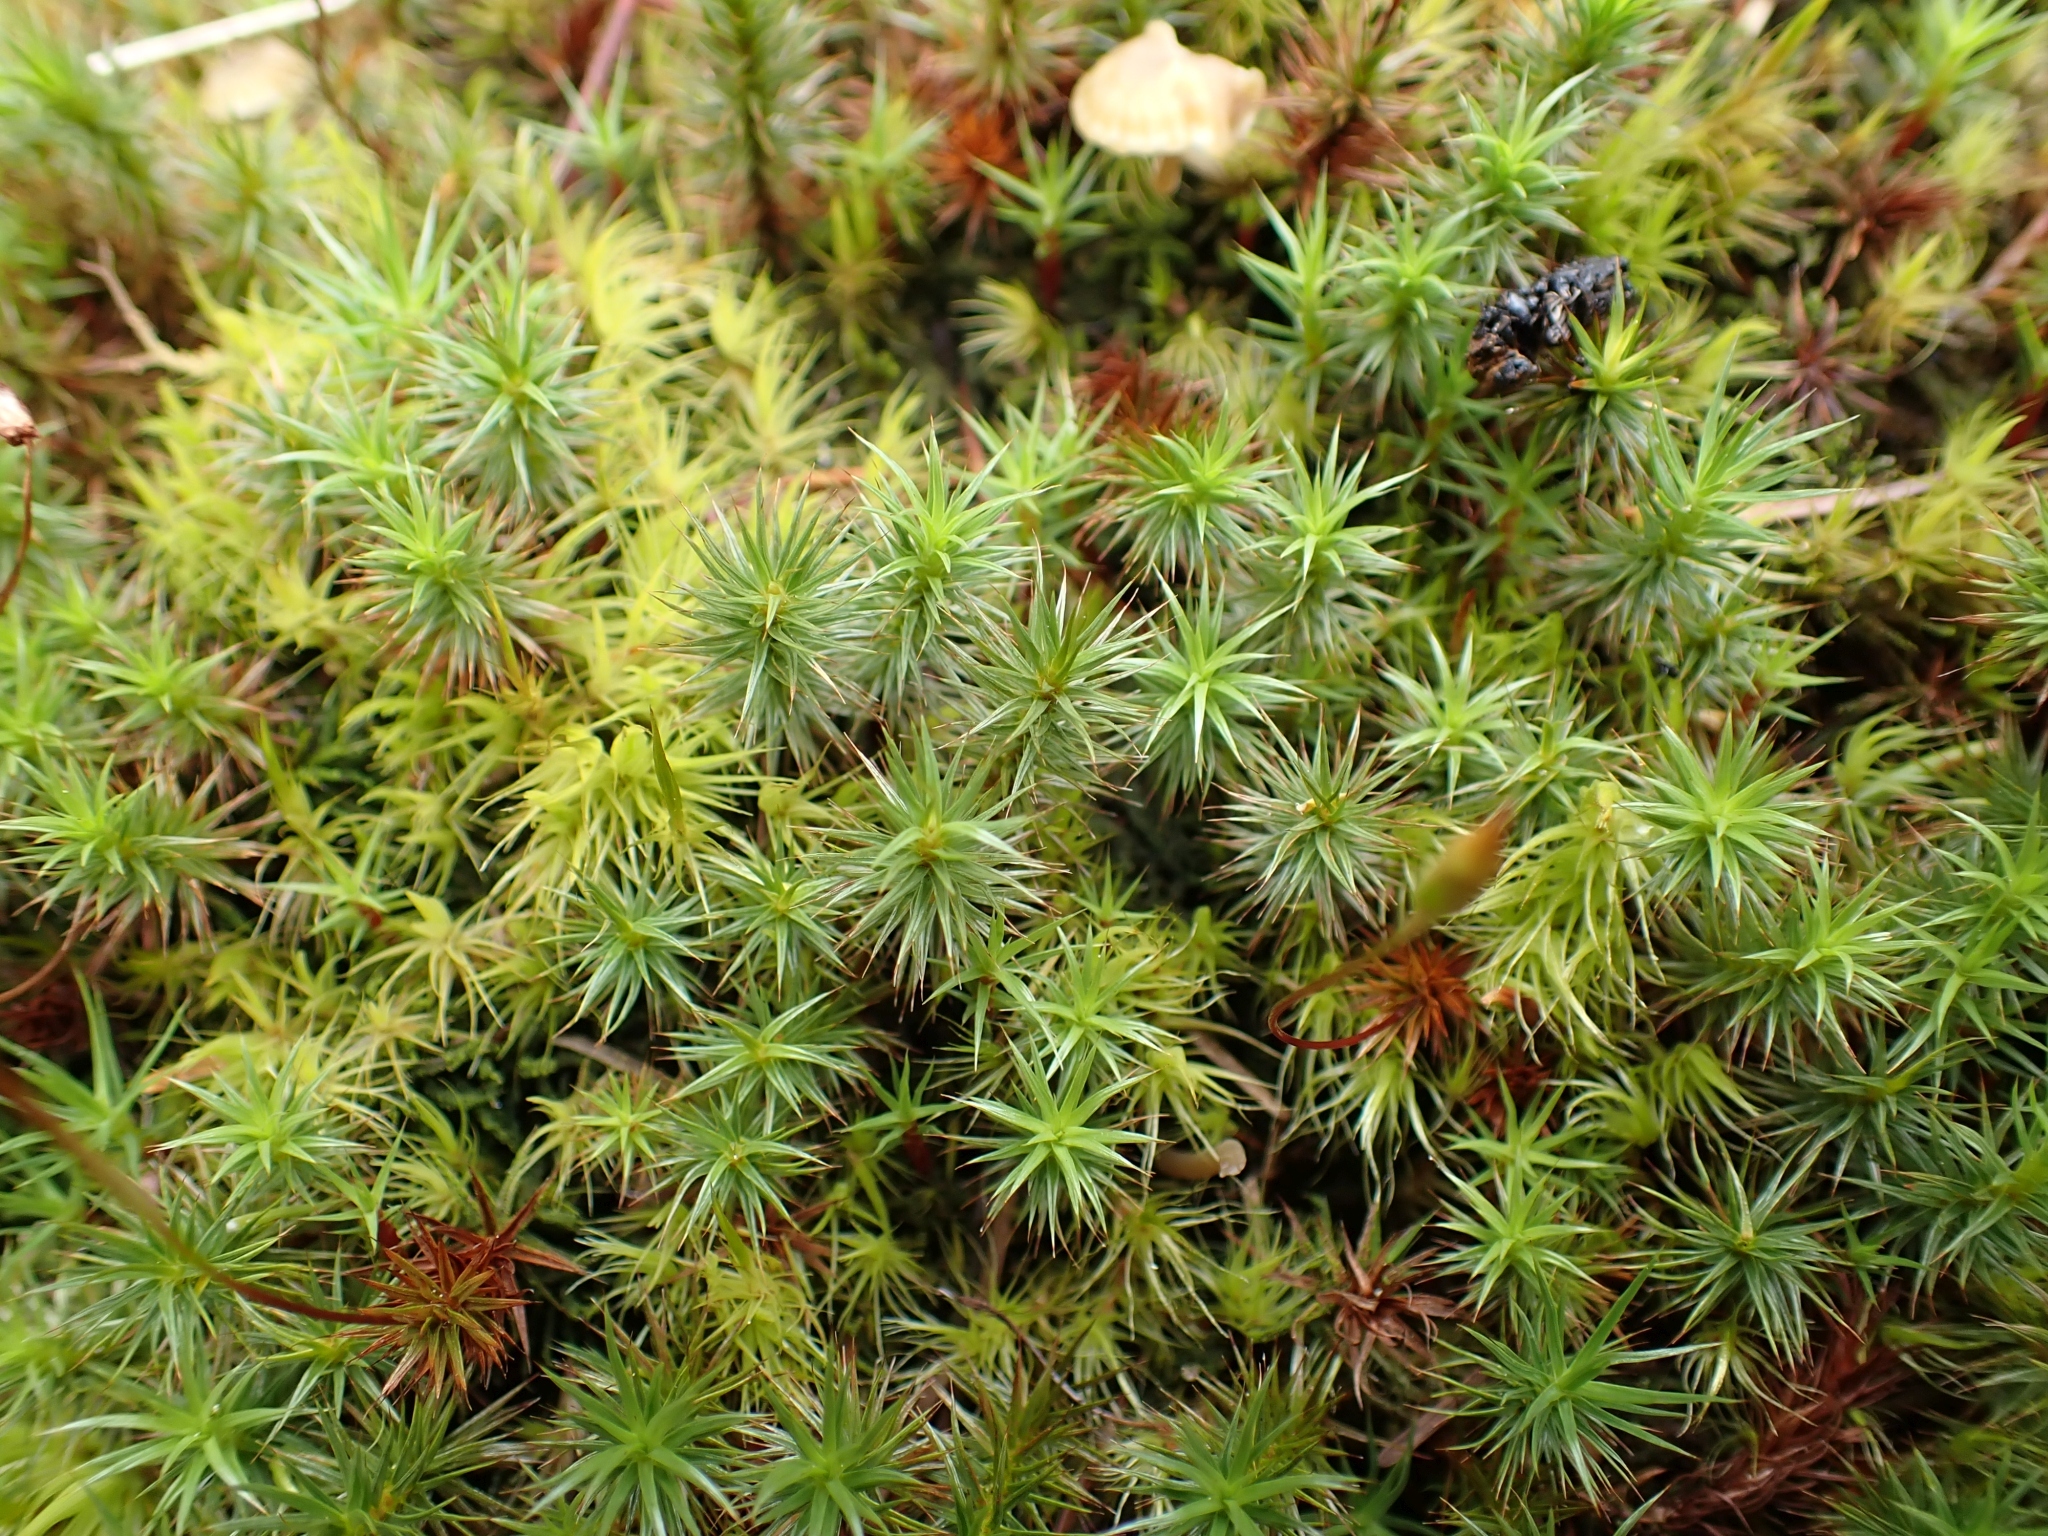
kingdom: Plantae
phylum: Bryophyta
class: Polytrichopsida
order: Polytrichales
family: Polytrichaceae
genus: Polytrichum
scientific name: Polytrichum juniperinum
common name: Juniper haircap moss
